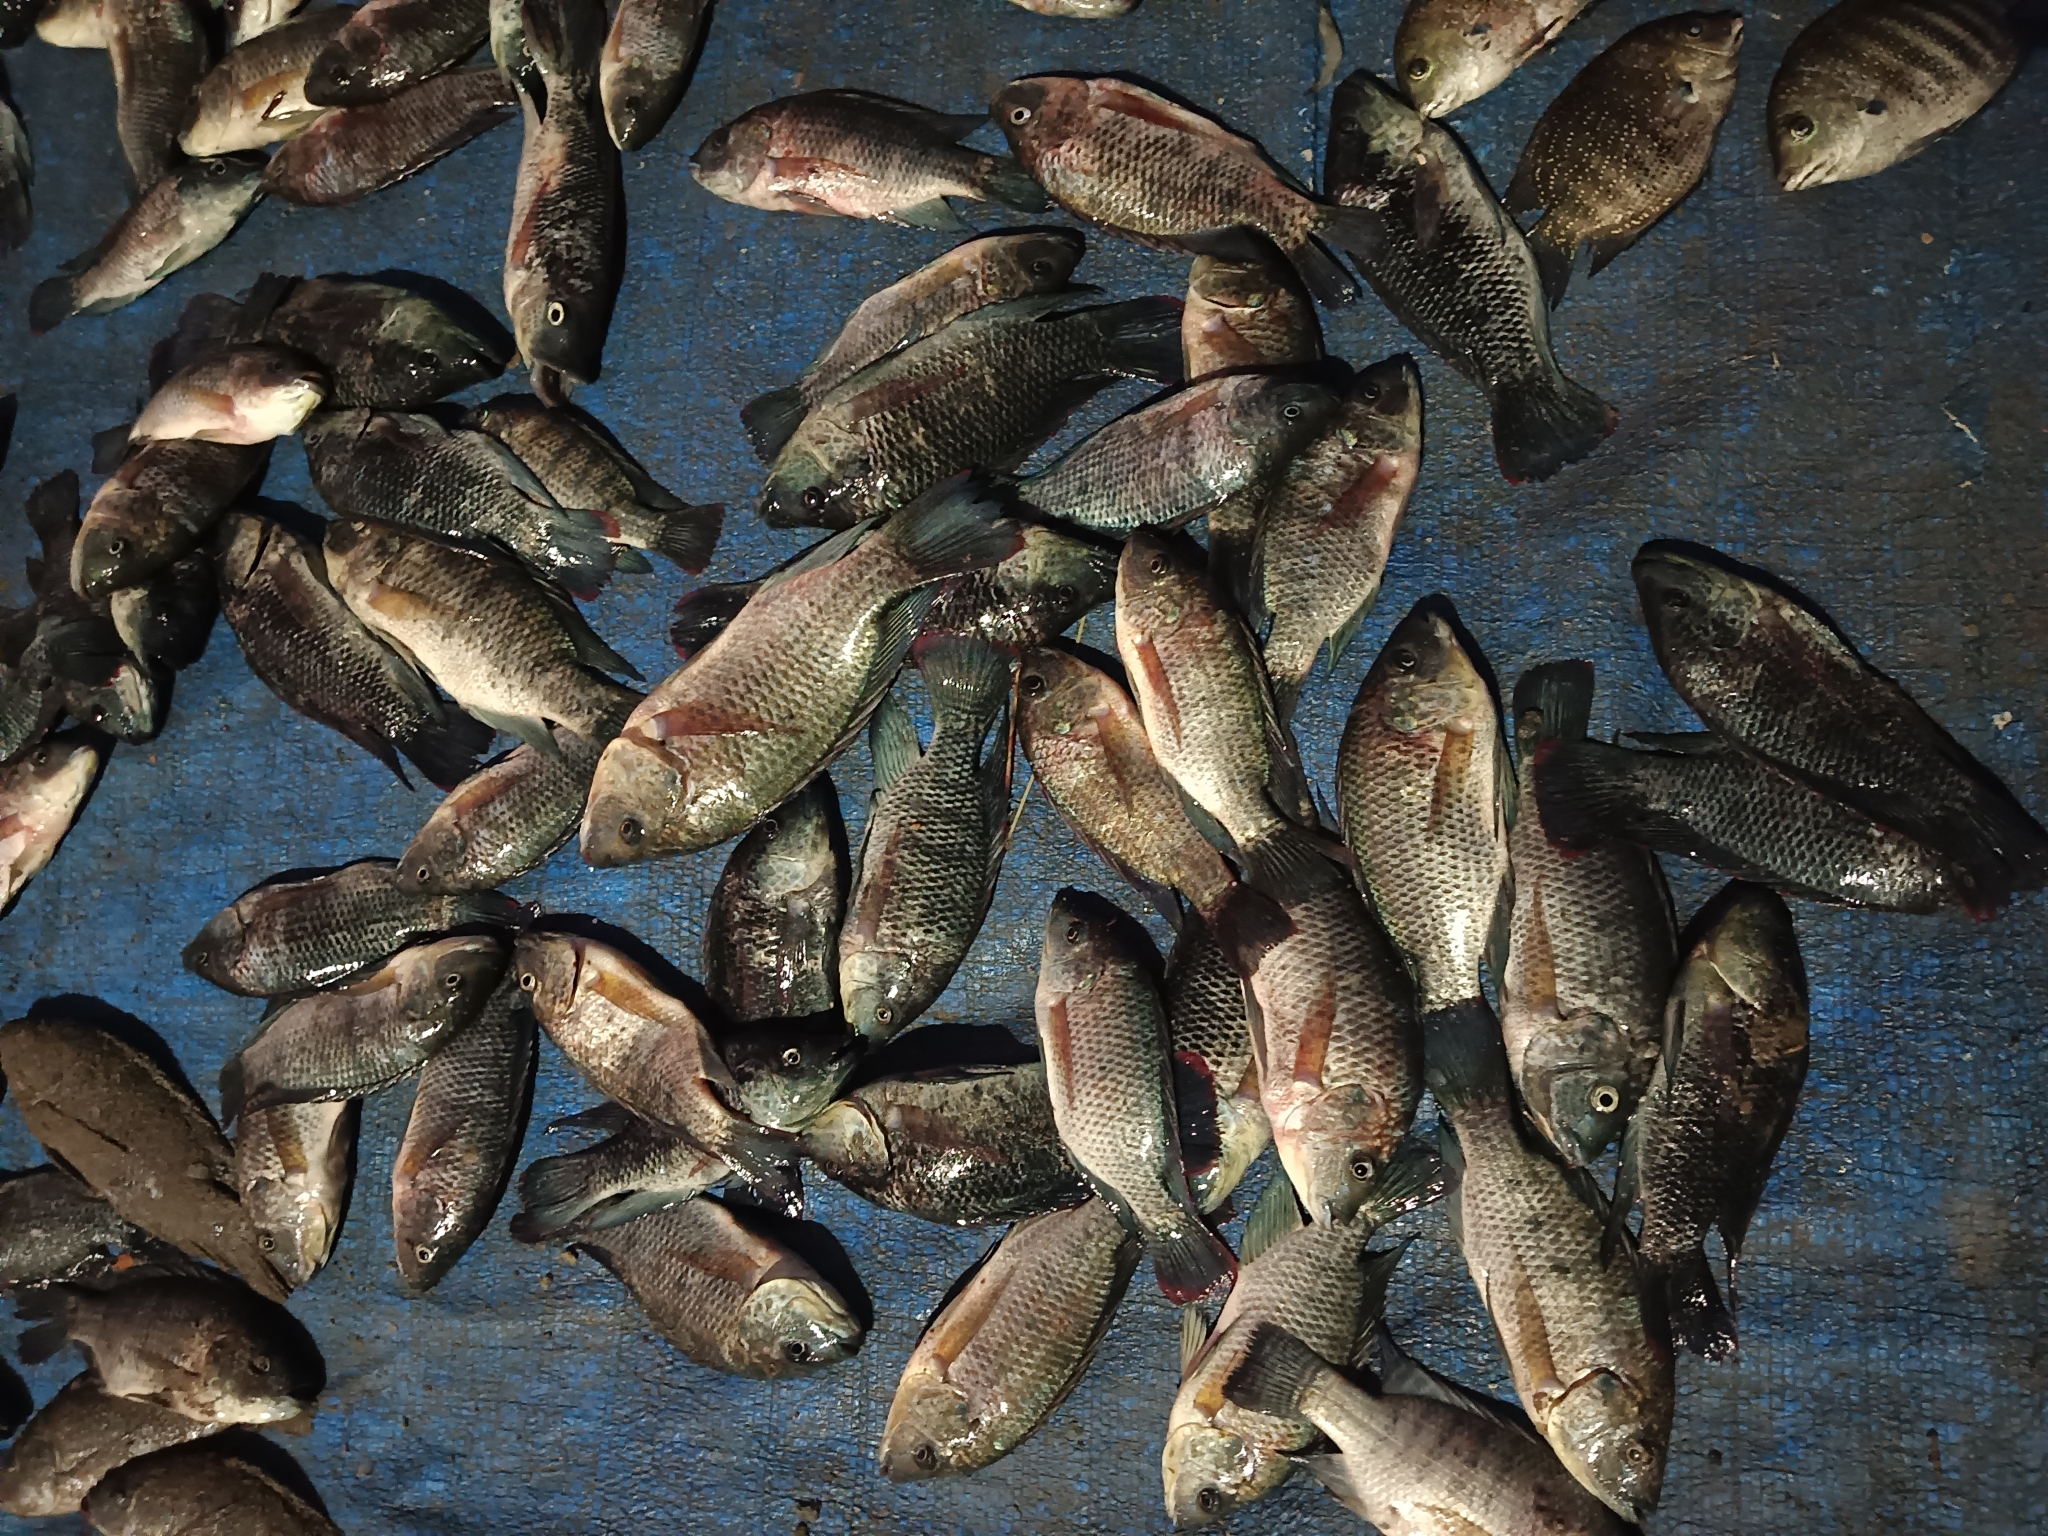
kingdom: Animalia
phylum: Chordata
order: Perciformes
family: Cichlidae
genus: Oreochromis
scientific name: Oreochromis mossambicus
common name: Mozambique tilapia
